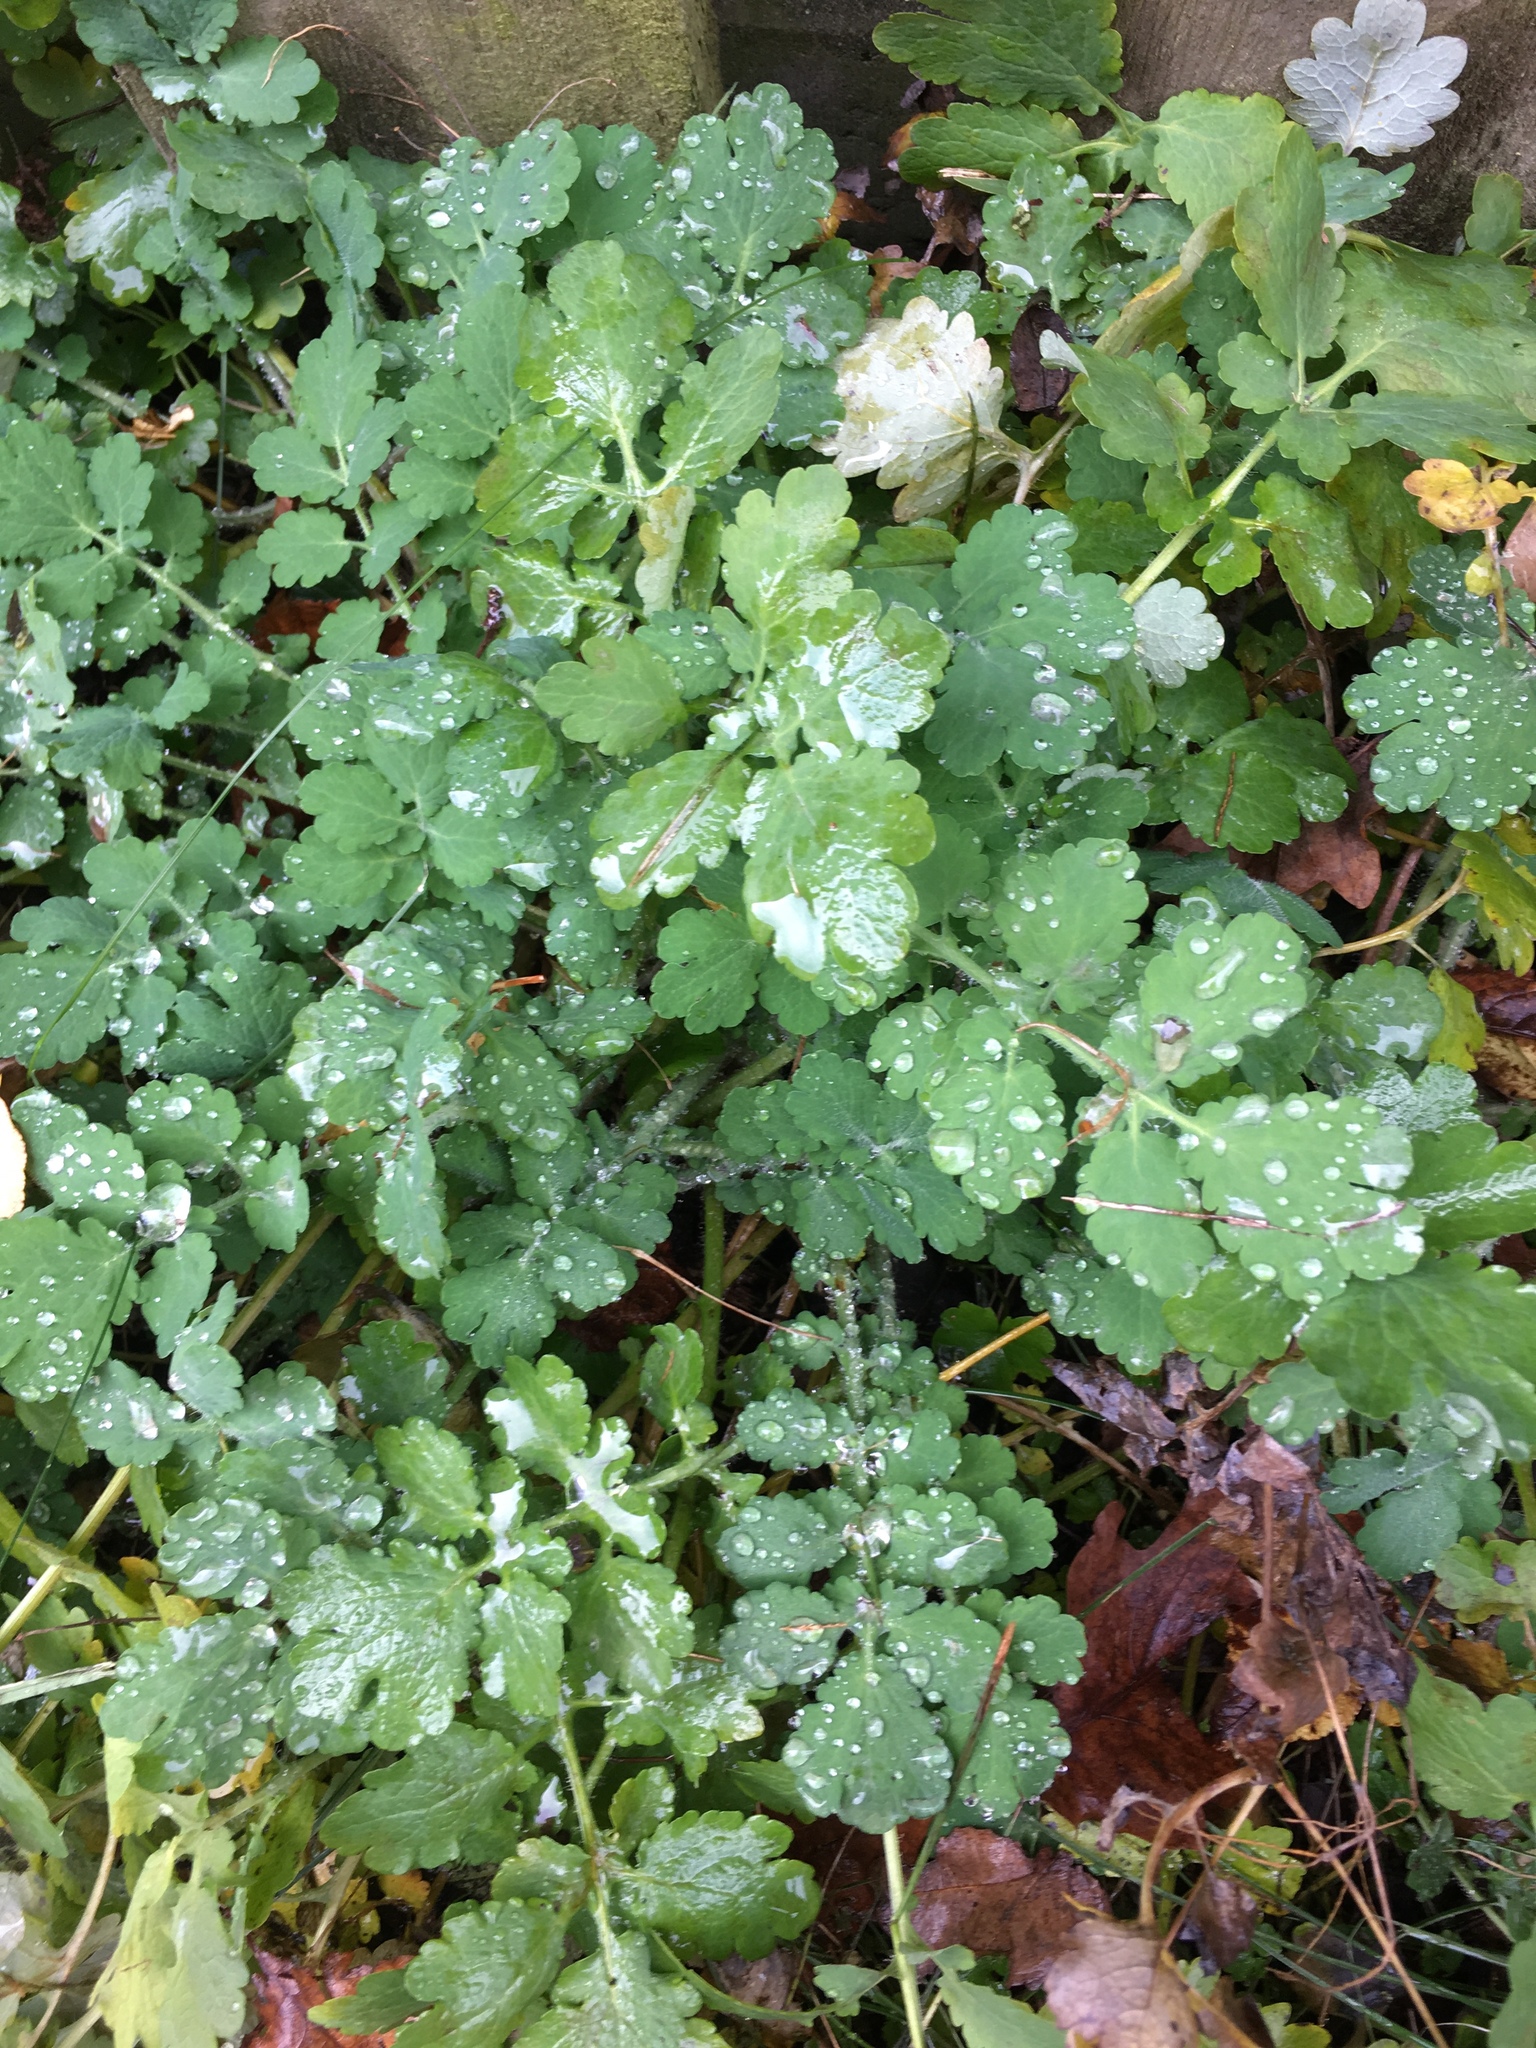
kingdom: Plantae
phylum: Tracheophyta
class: Magnoliopsida
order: Ranunculales
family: Papaveraceae
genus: Chelidonium
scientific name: Chelidonium majus
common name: Greater celandine
